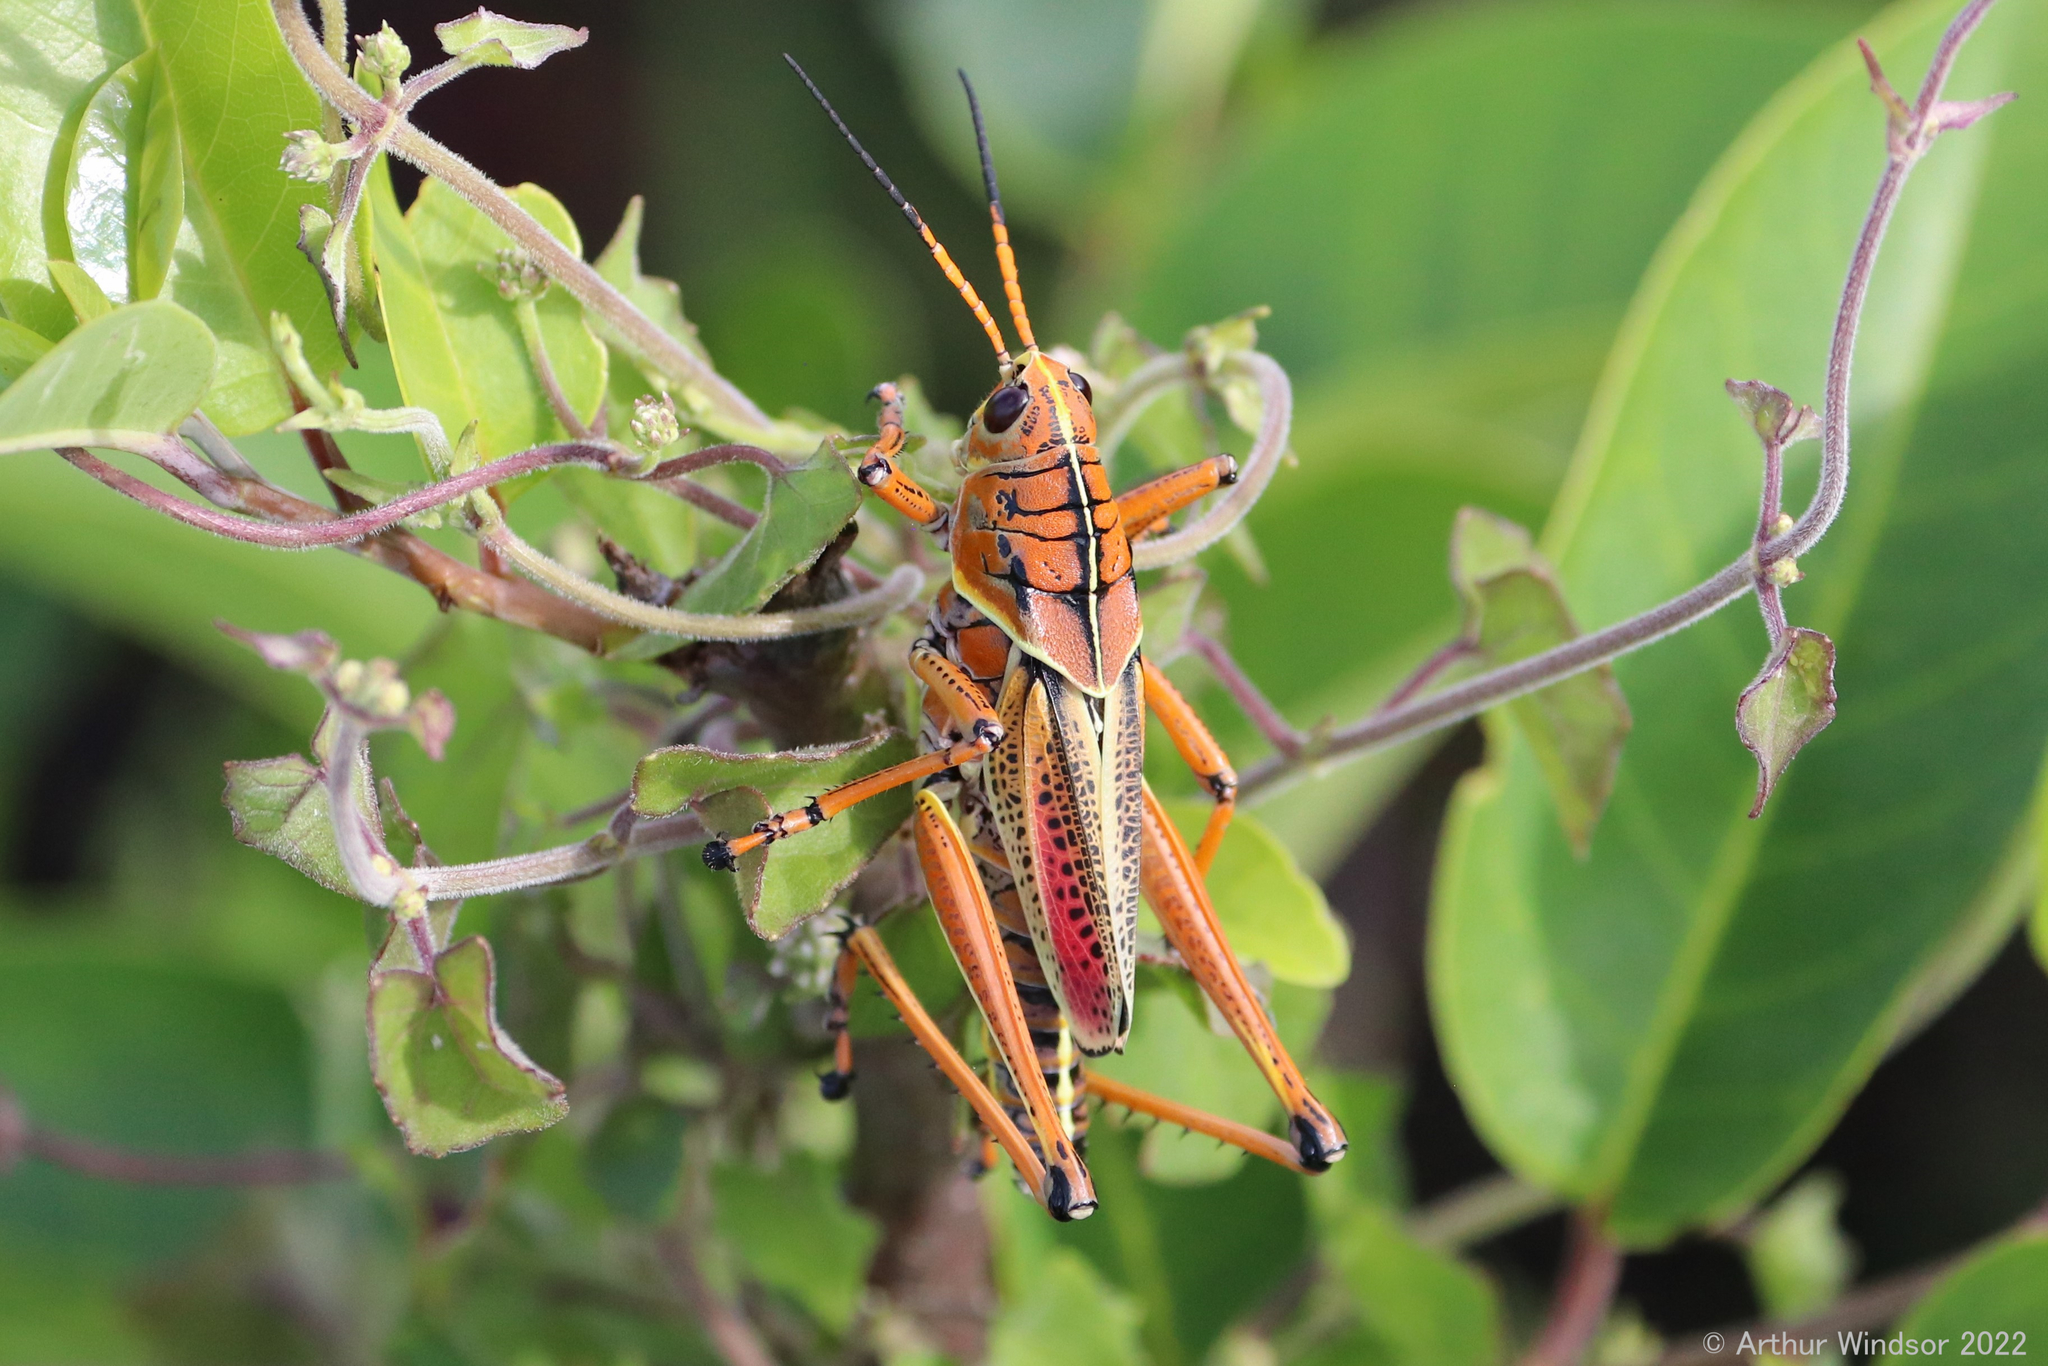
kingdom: Animalia
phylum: Arthropoda
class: Insecta
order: Orthoptera
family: Romaleidae
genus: Romalea
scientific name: Romalea microptera
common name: Eastern lubber grasshopper
